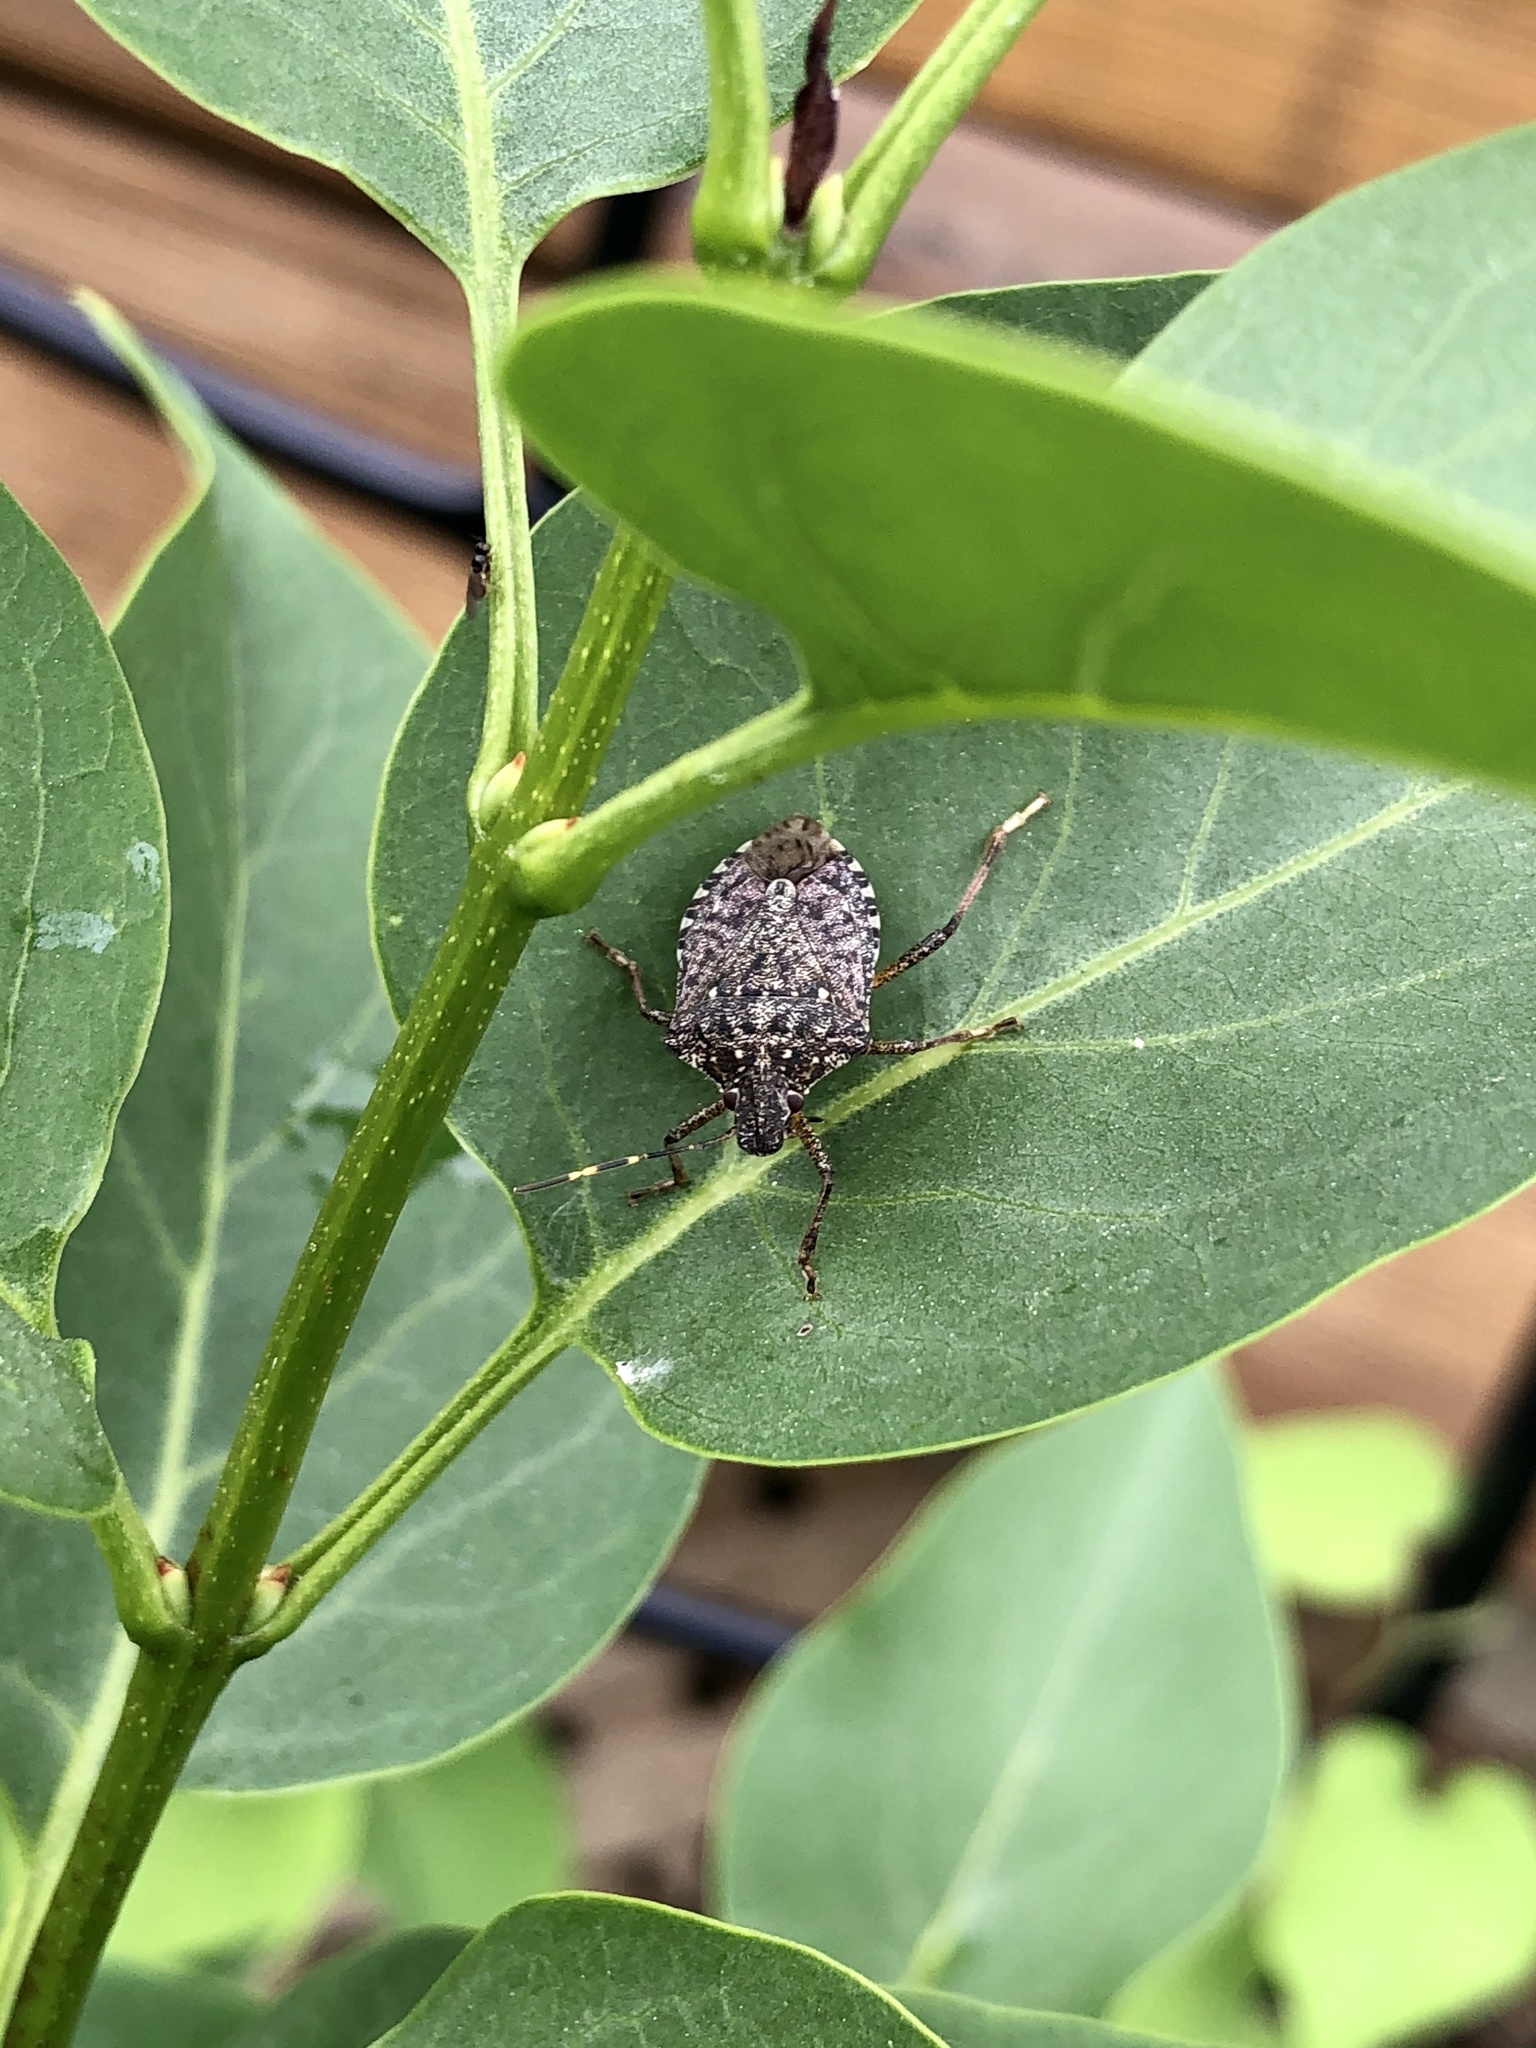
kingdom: Animalia
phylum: Arthropoda
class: Insecta
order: Hemiptera
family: Pentatomidae
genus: Halyomorpha
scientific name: Halyomorpha halys
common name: Brown marmorated stink bug
